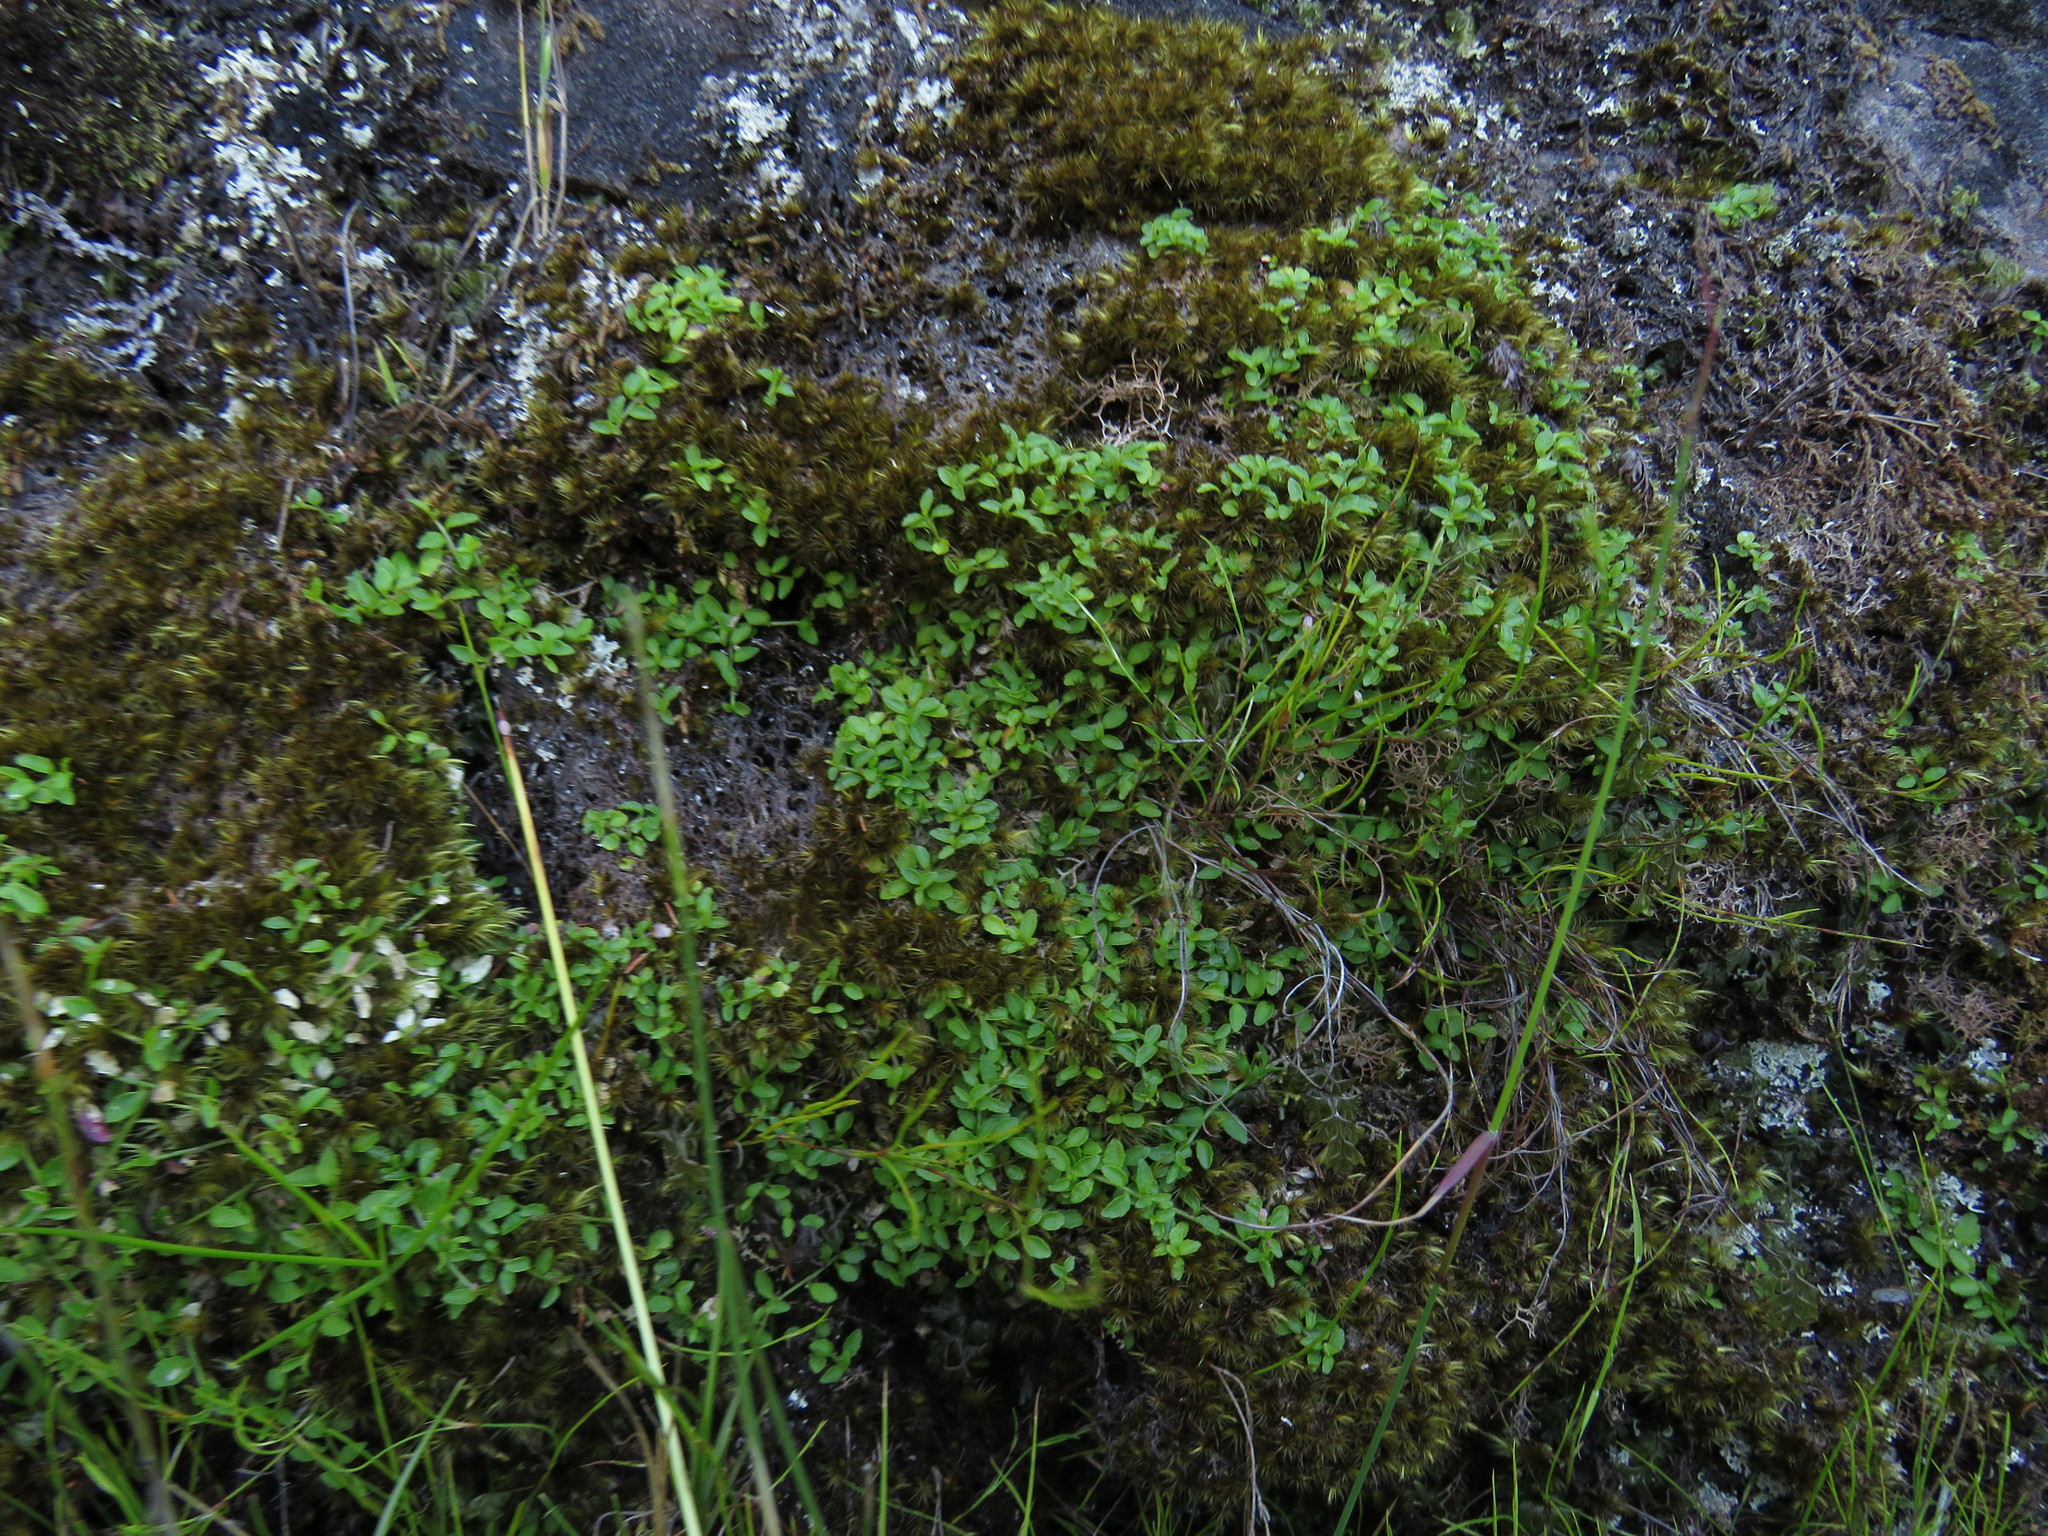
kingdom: Plantae
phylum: Tracheophyta
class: Magnoliopsida
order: Asterales
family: Campanulaceae
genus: Unigenes
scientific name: Unigenes humifusa
